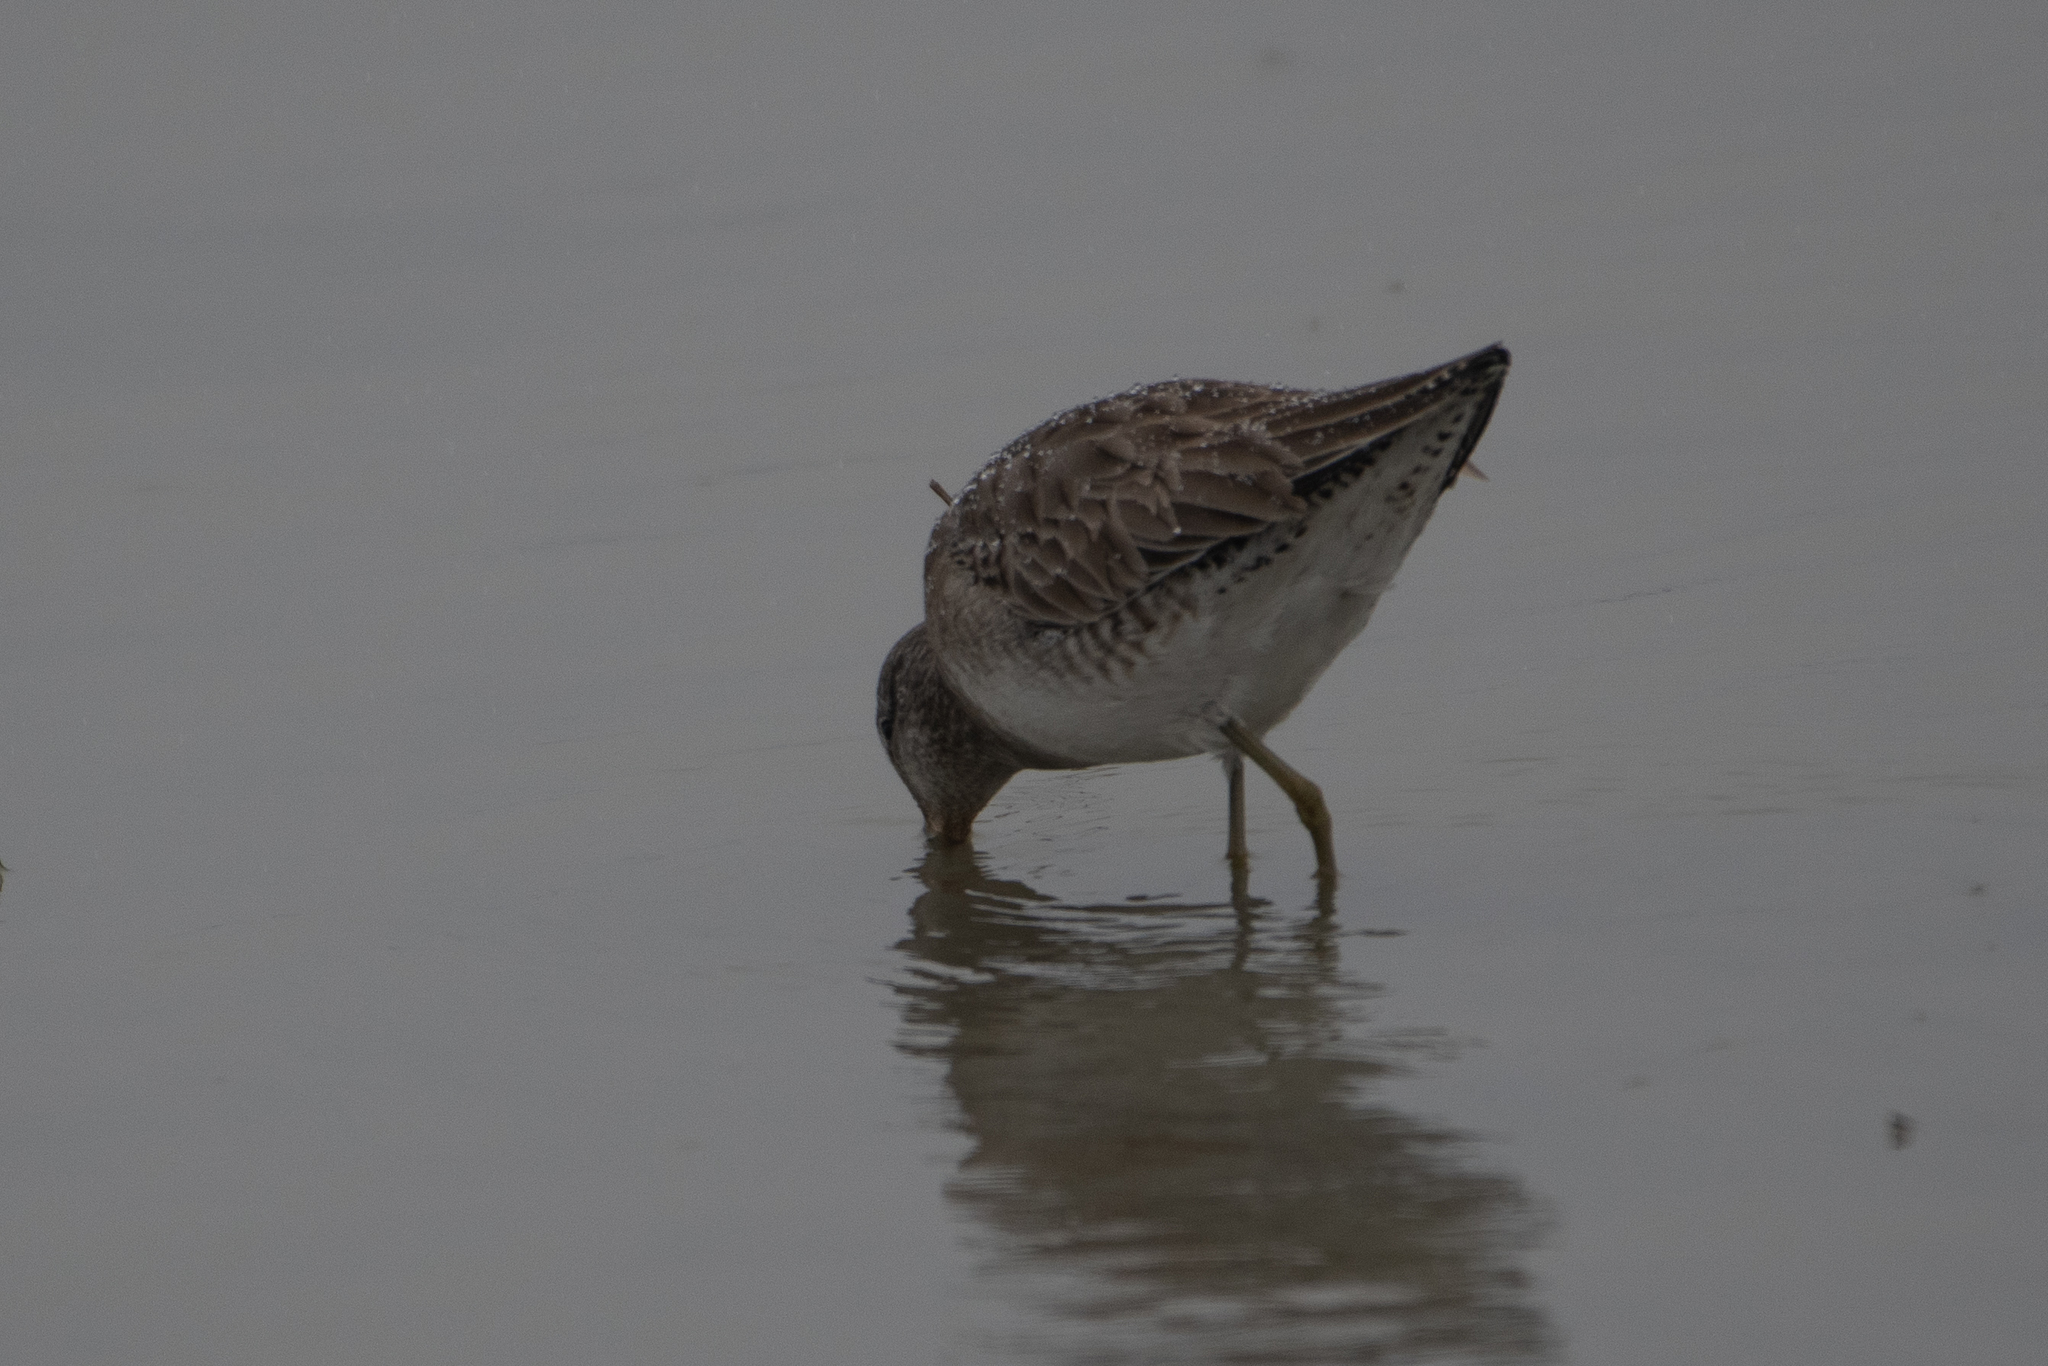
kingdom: Animalia
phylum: Chordata
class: Aves
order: Charadriiformes
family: Scolopacidae
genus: Limnodromus
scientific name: Limnodromus scolopaceus
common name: Long-billed dowitcher
